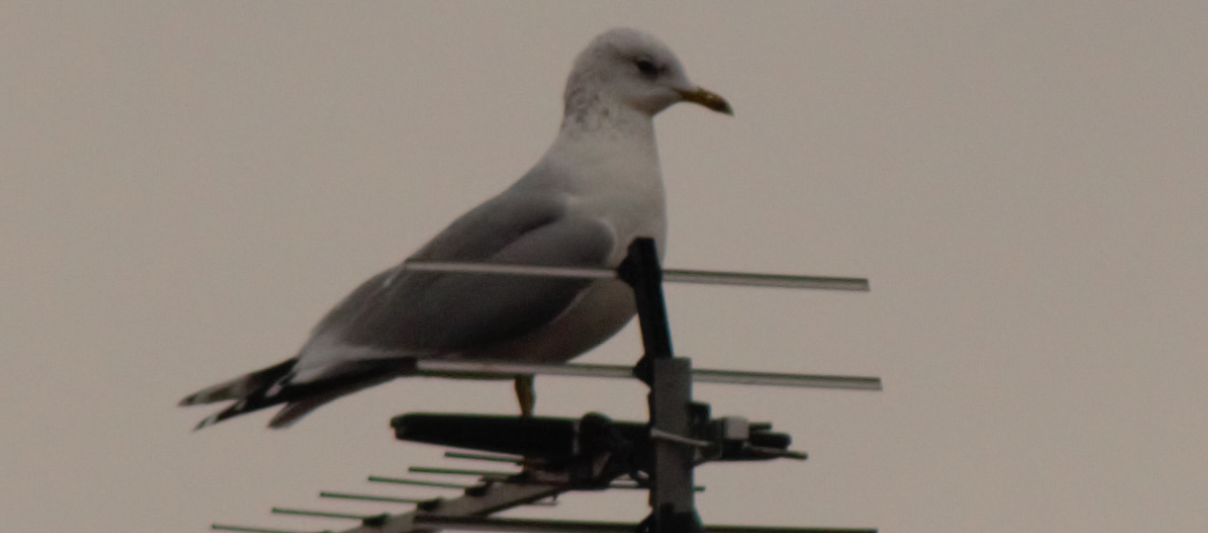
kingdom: Animalia
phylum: Chordata
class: Aves
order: Charadriiformes
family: Laridae
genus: Larus
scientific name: Larus canus
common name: Mew gull
